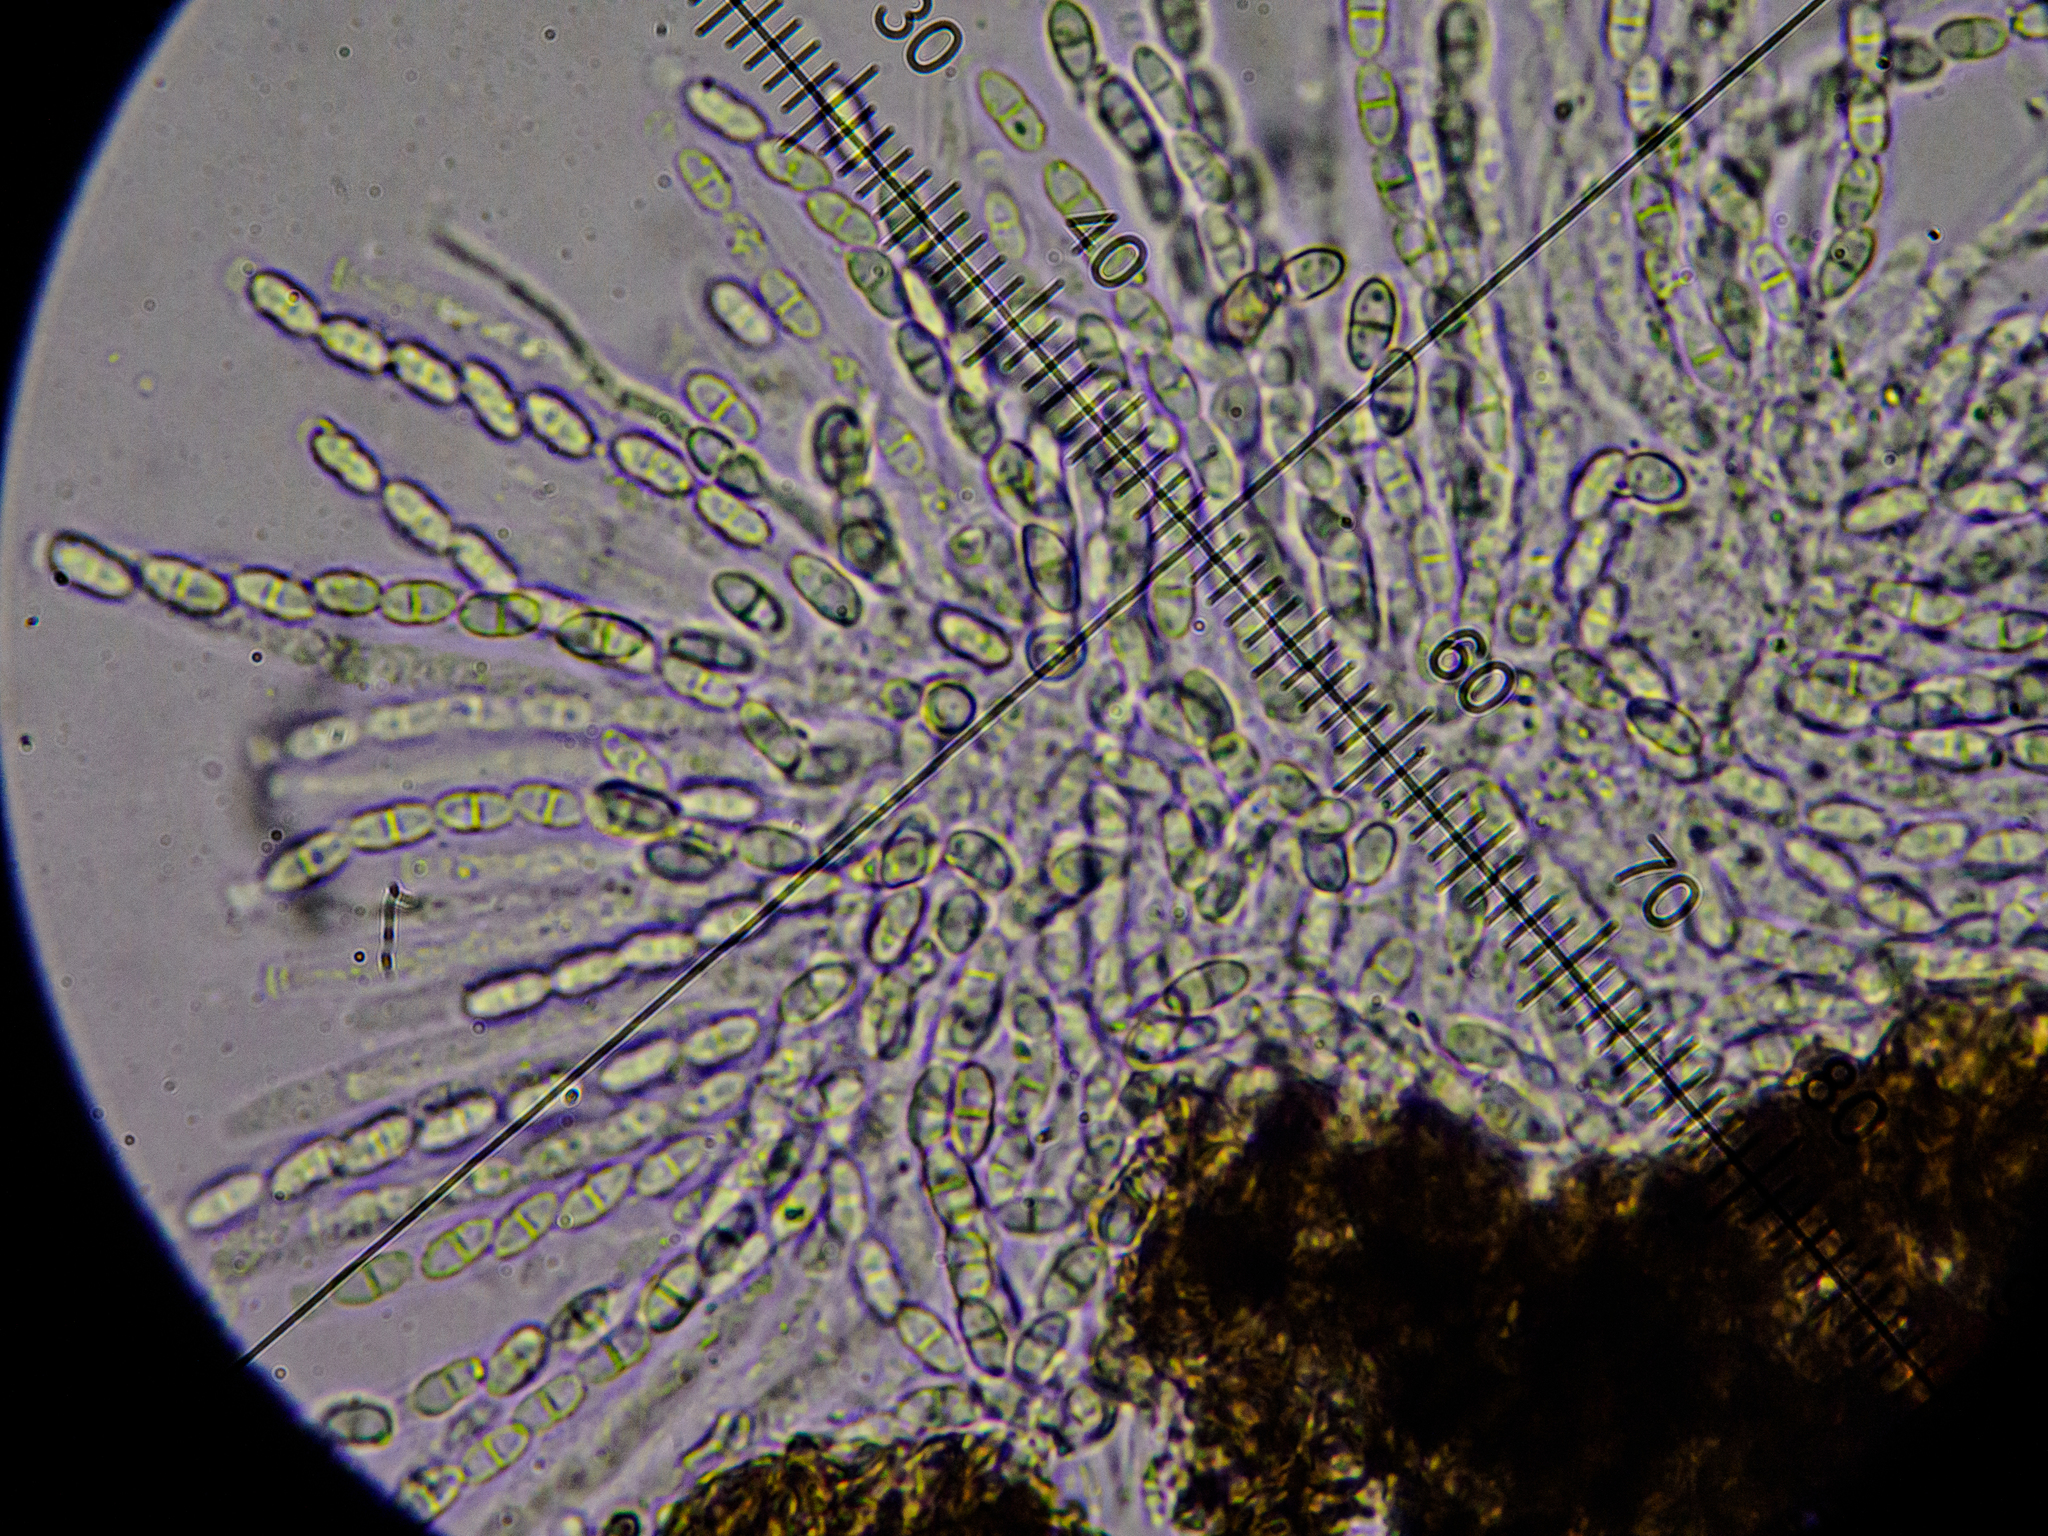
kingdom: Fungi
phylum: Ascomycota
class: Sordariomycetes
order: Hypocreales
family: Nectriaceae
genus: Cosmospora
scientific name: Cosmospora arxii
